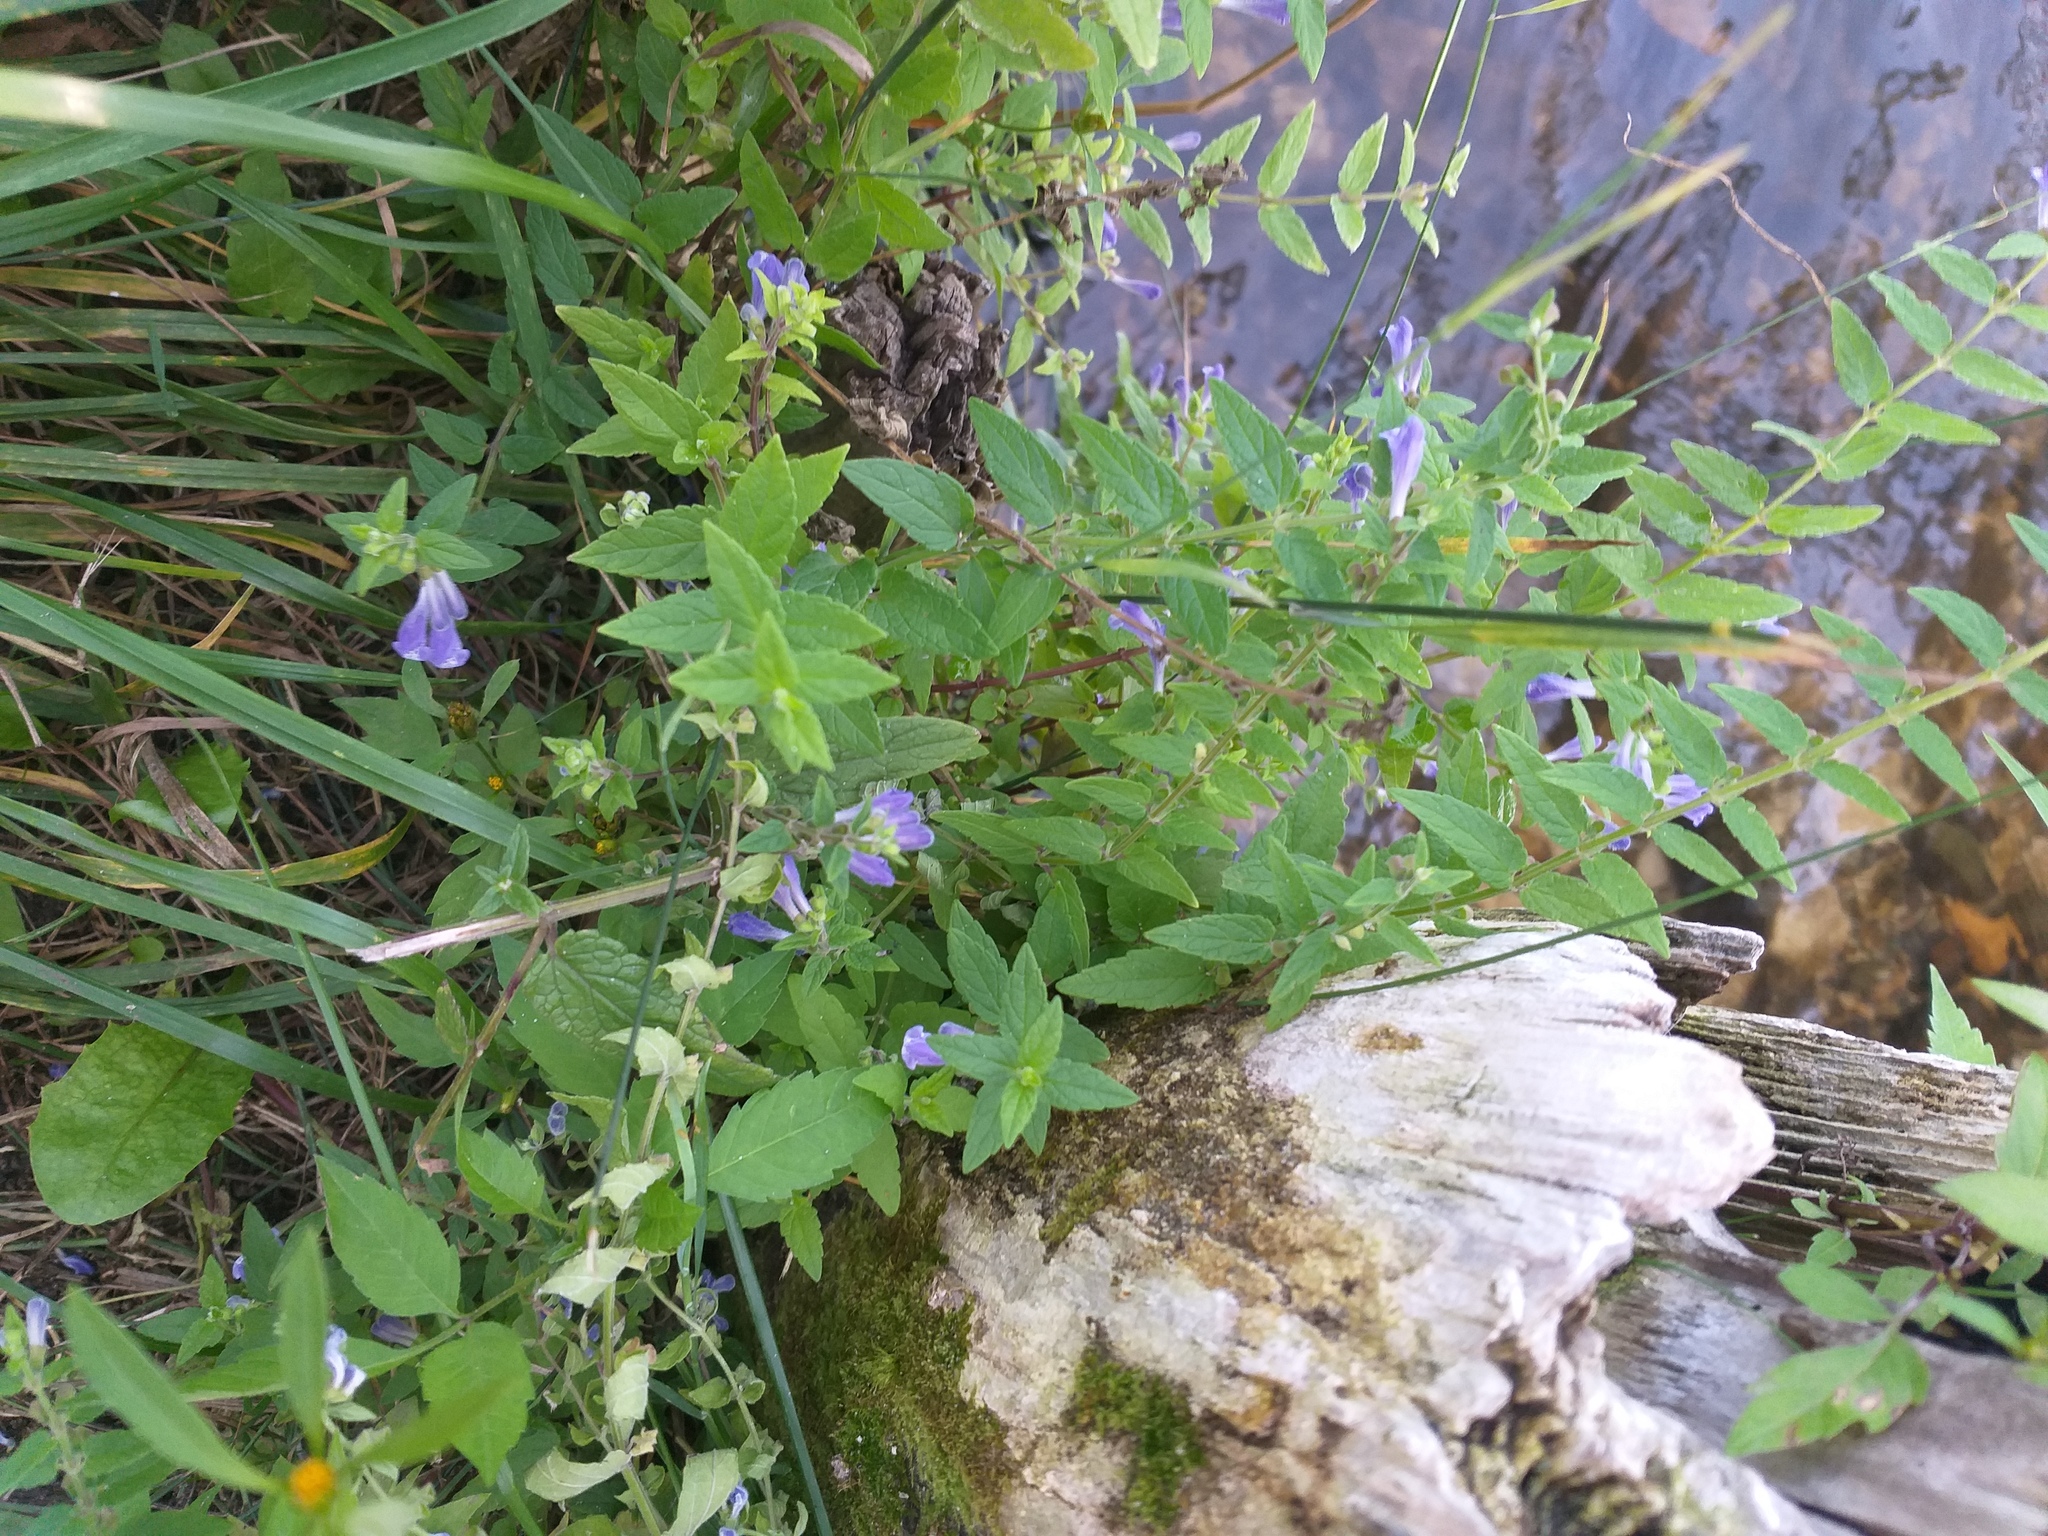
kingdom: Plantae
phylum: Tracheophyta
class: Magnoliopsida
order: Lamiales
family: Lamiaceae
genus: Scutellaria
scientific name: Scutellaria galericulata
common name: Skullcap
